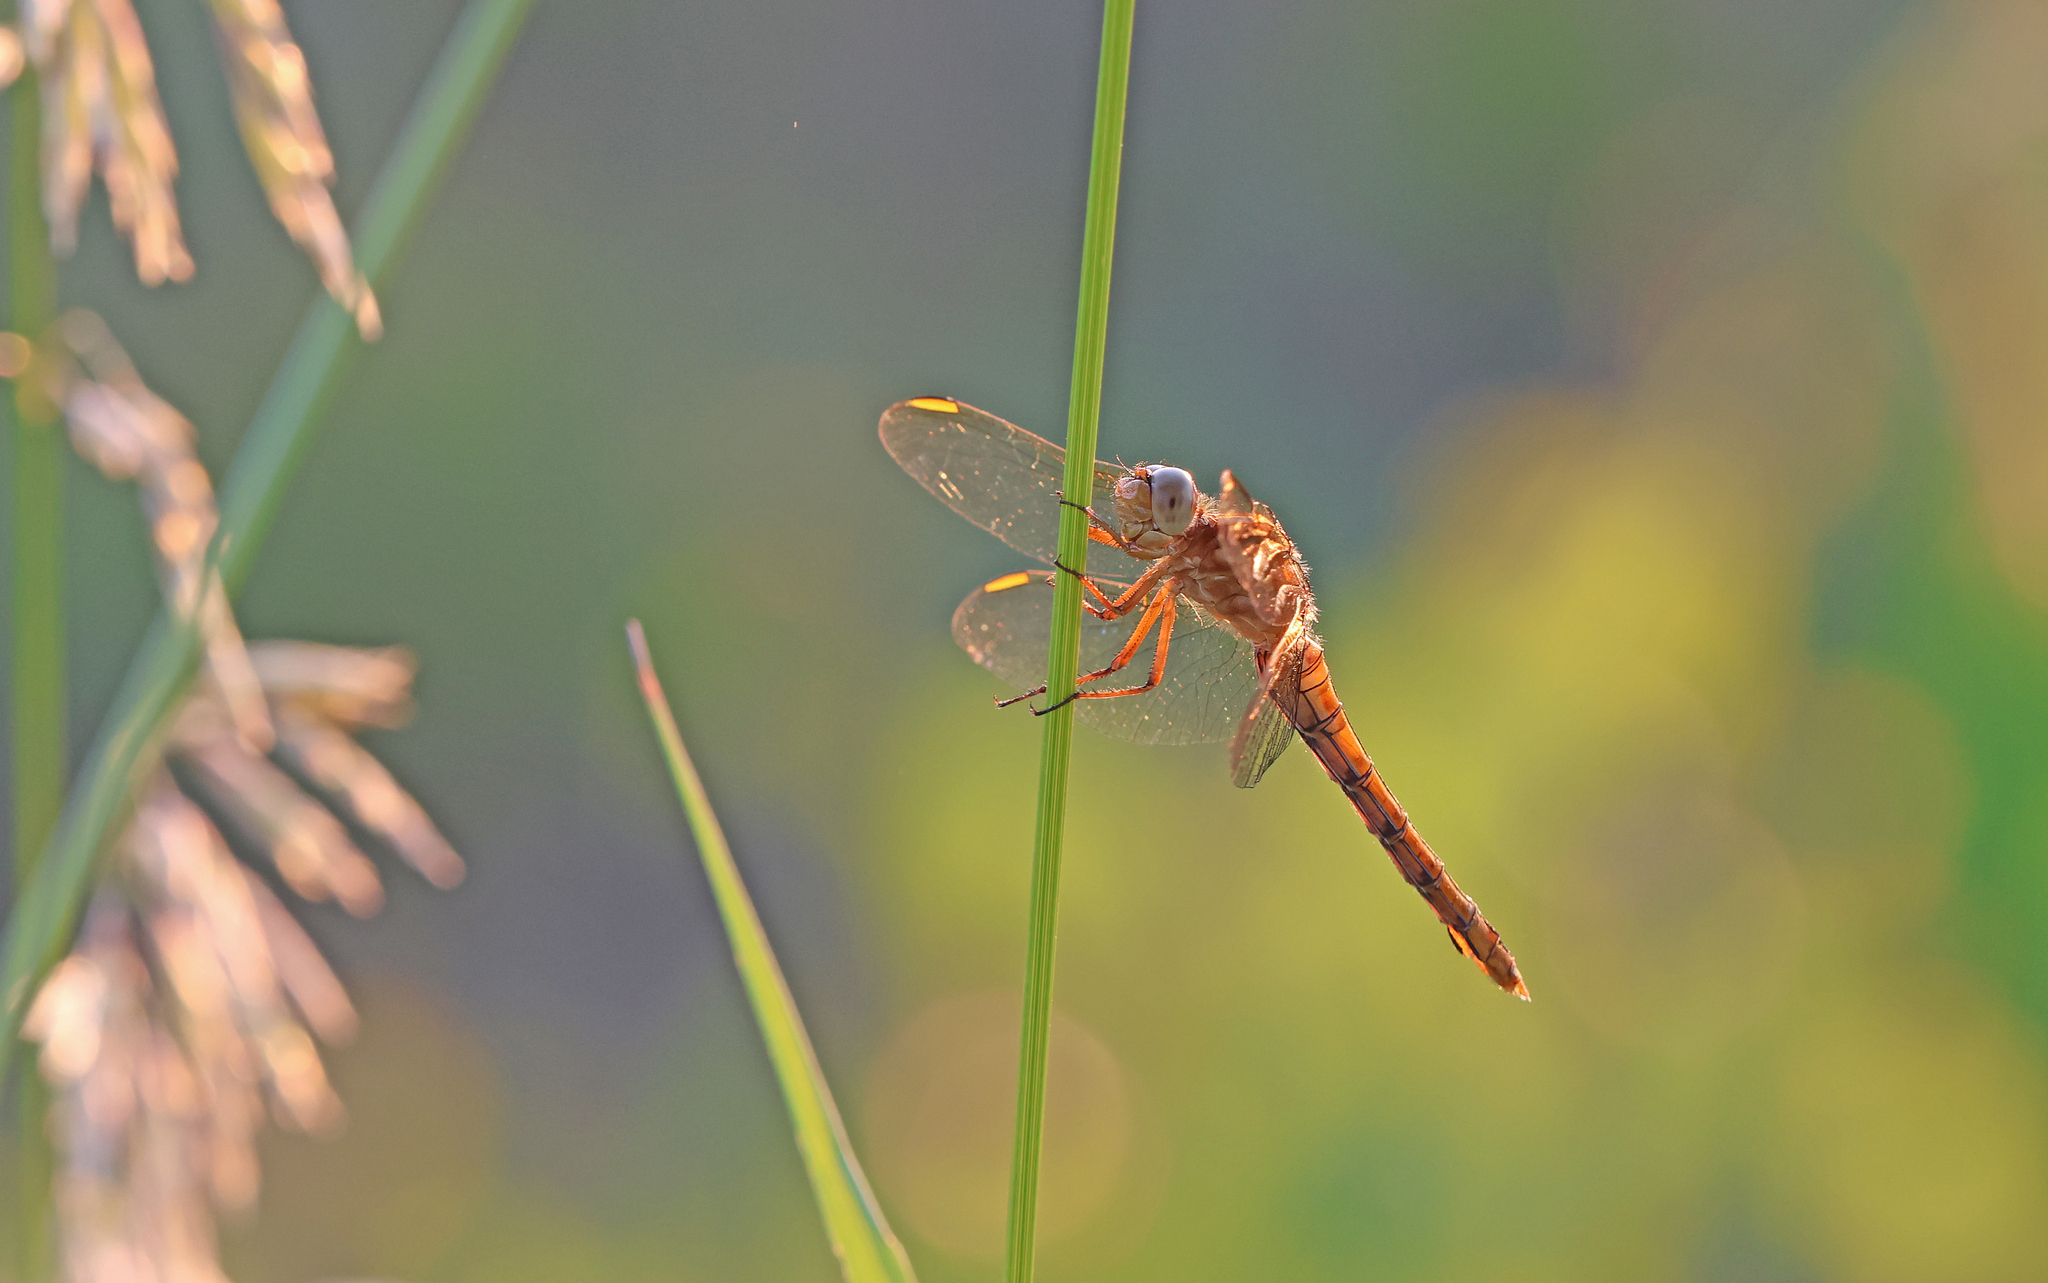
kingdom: Animalia
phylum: Arthropoda
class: Insecta
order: Odonata
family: Libellulidae
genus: Orthetrum
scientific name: Orthetrum coerulescens
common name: Keeled skimmer
